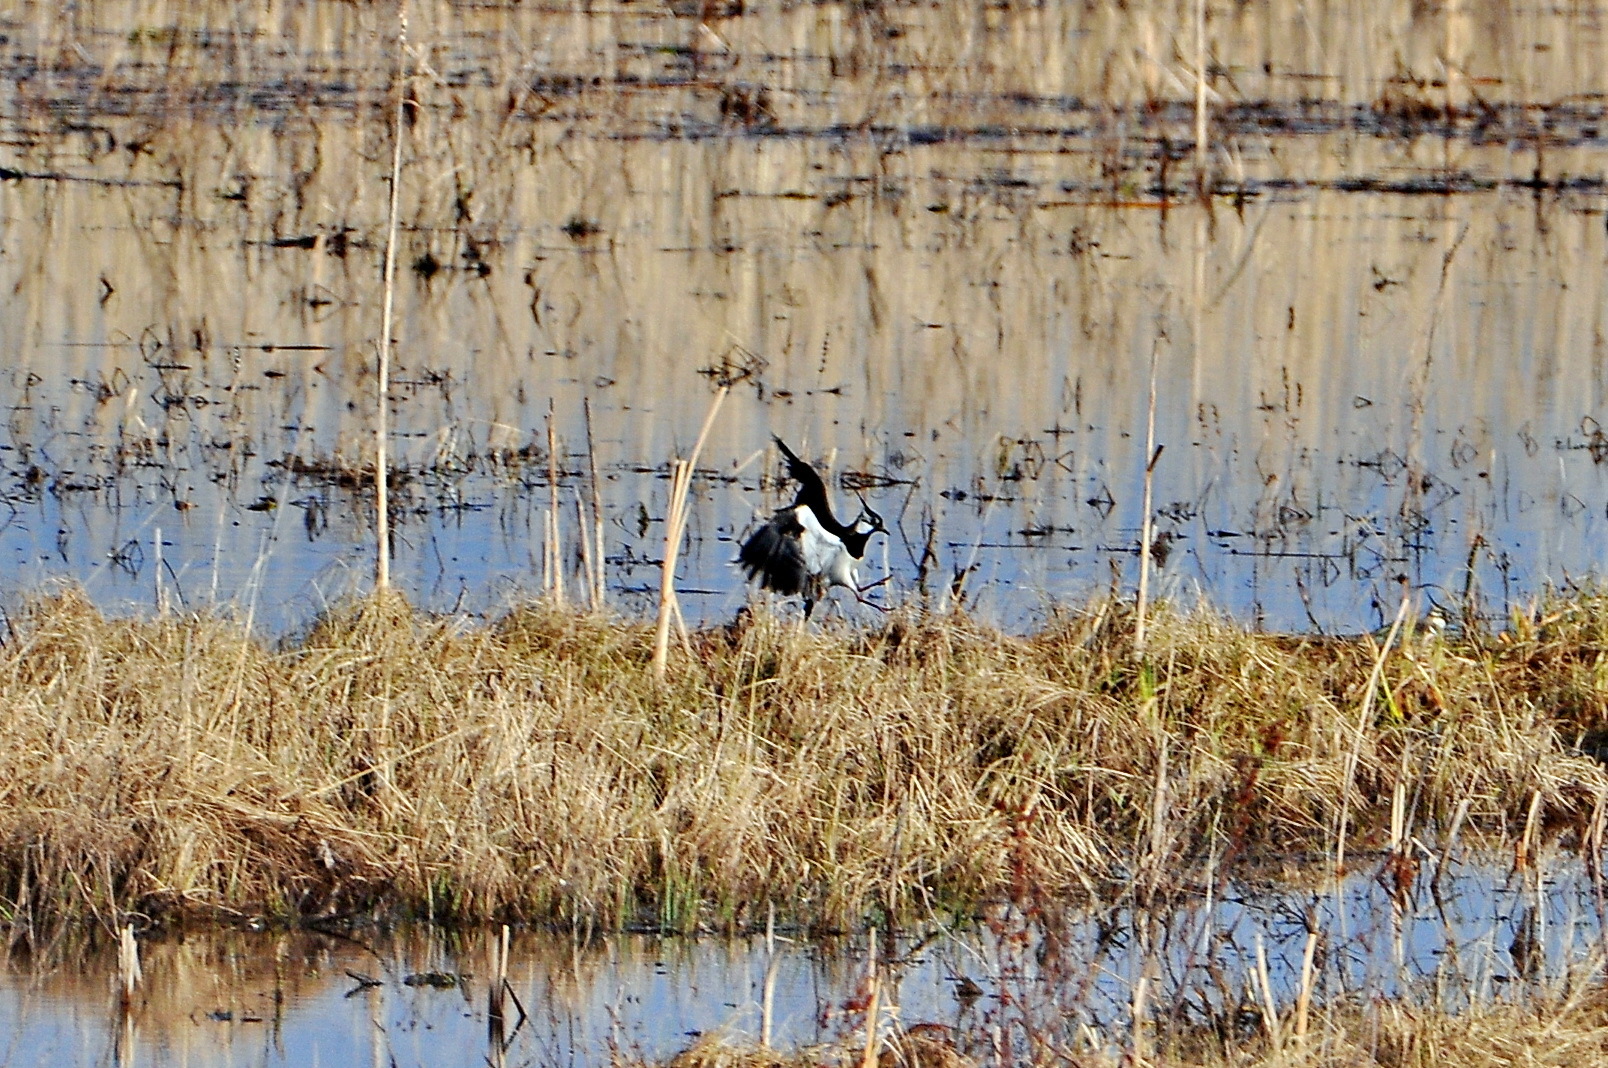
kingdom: Animalia
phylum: Chordata
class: Aves
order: Charadriiformes
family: Charadriidae
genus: Vanellus
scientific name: Vanellus vanellus
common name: Northern lapwing
